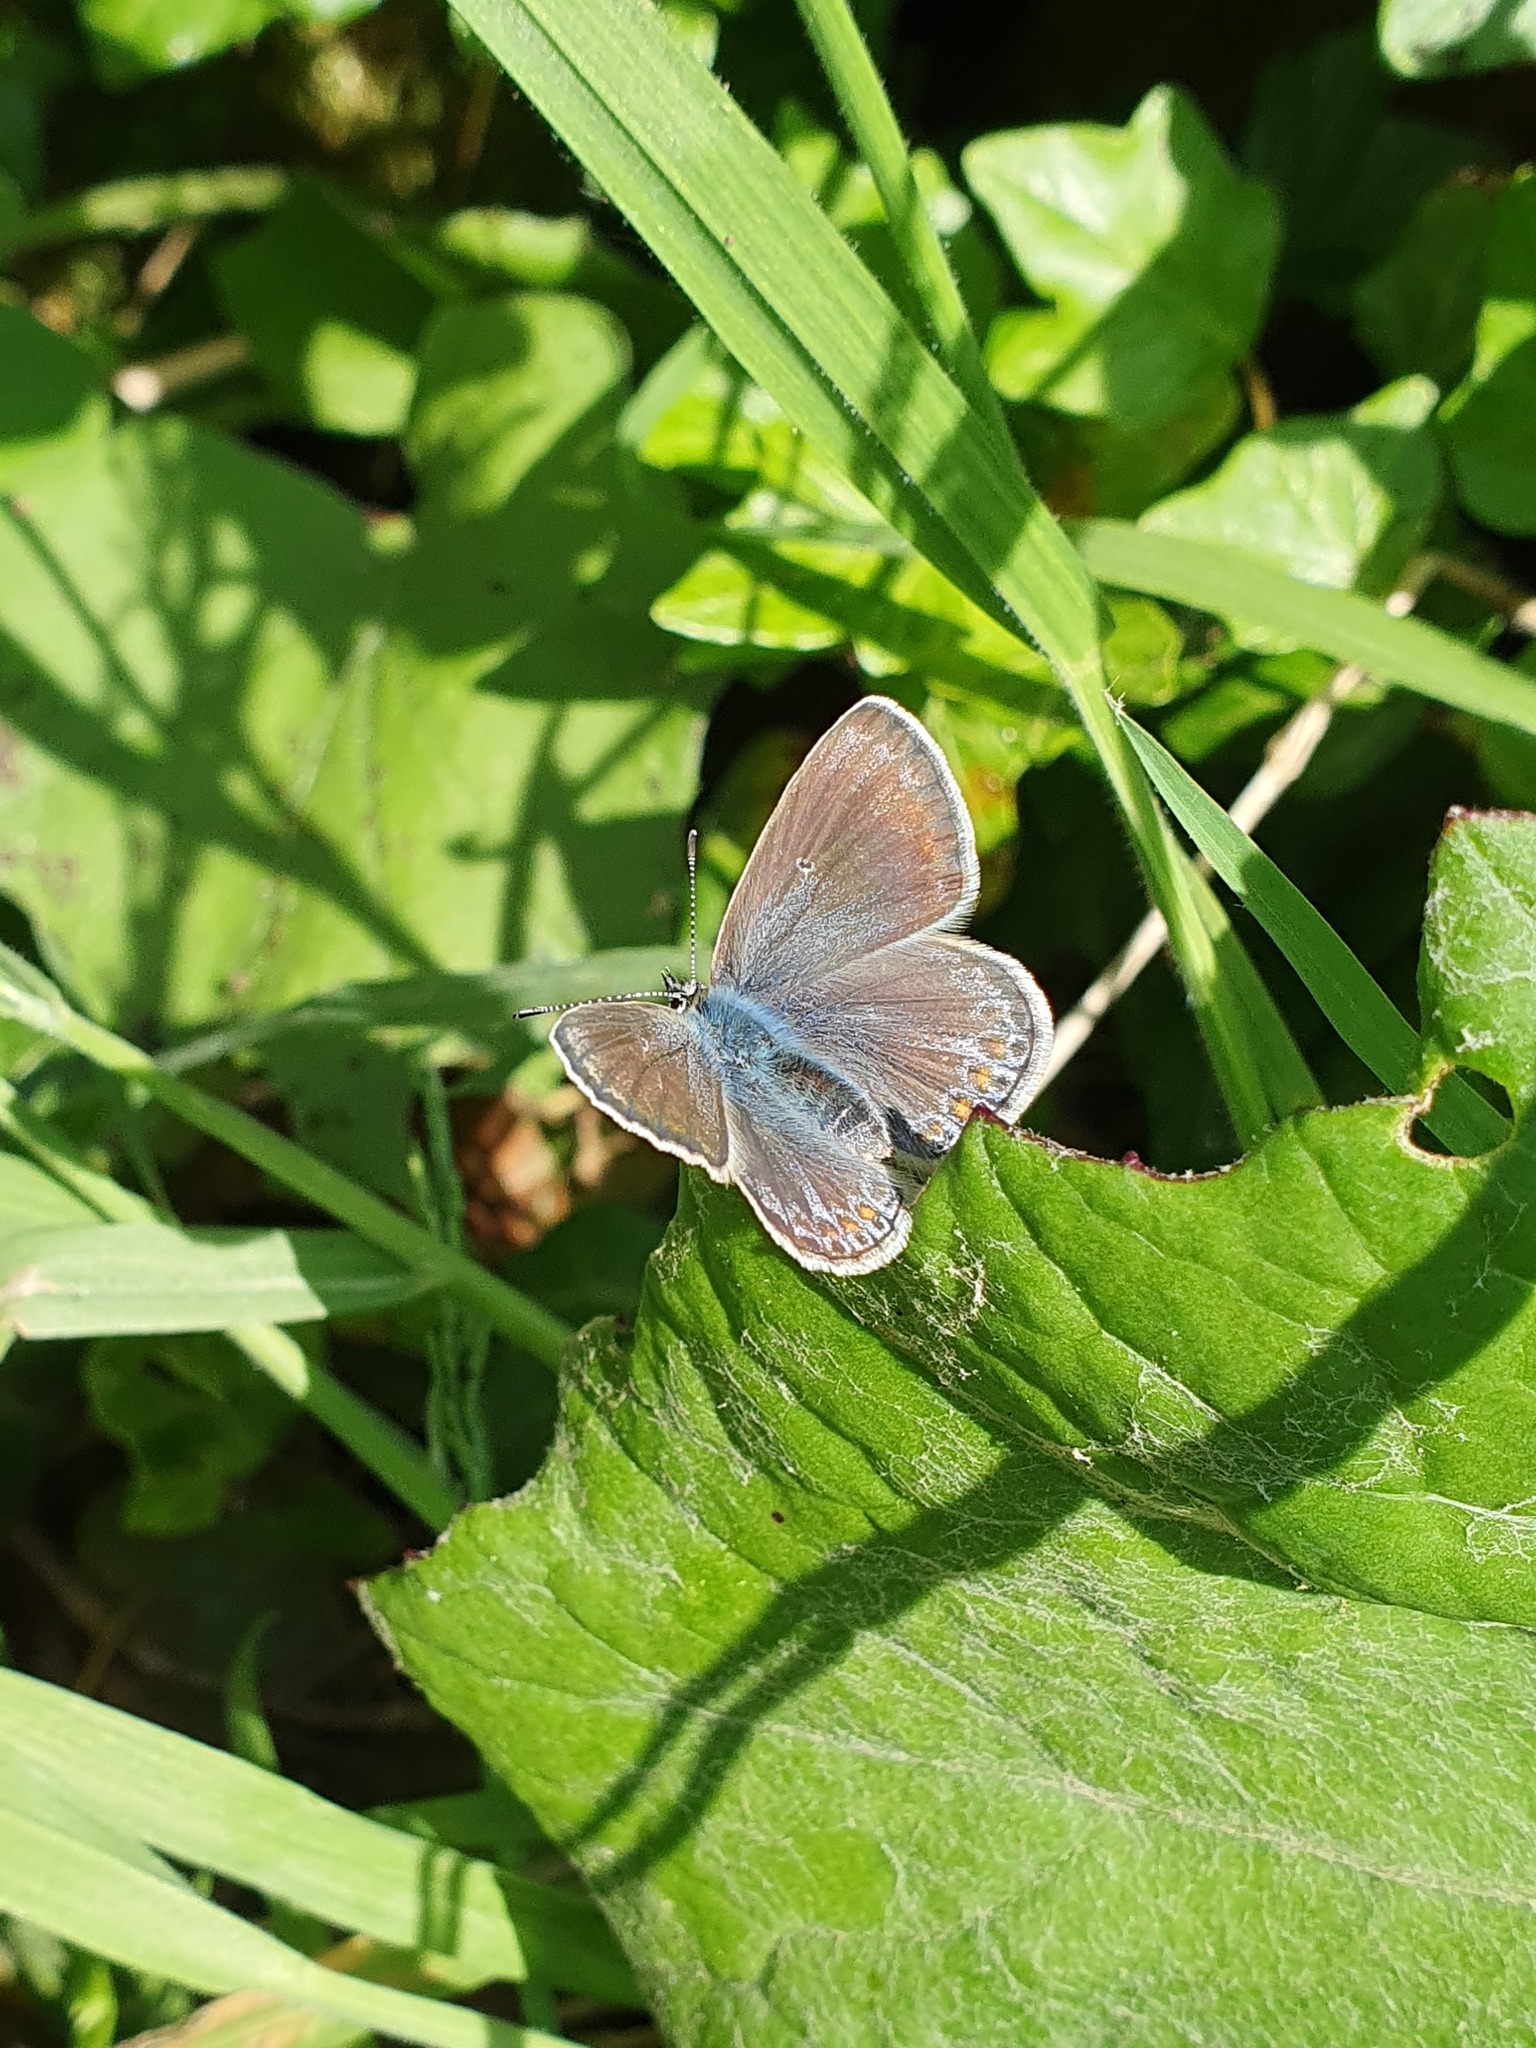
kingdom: Animalia
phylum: Arthropoda
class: Insecta
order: Lepidoptera
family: Lycaenidae
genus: Polyommatus
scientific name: Polyommatus icarus
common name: Common blue
